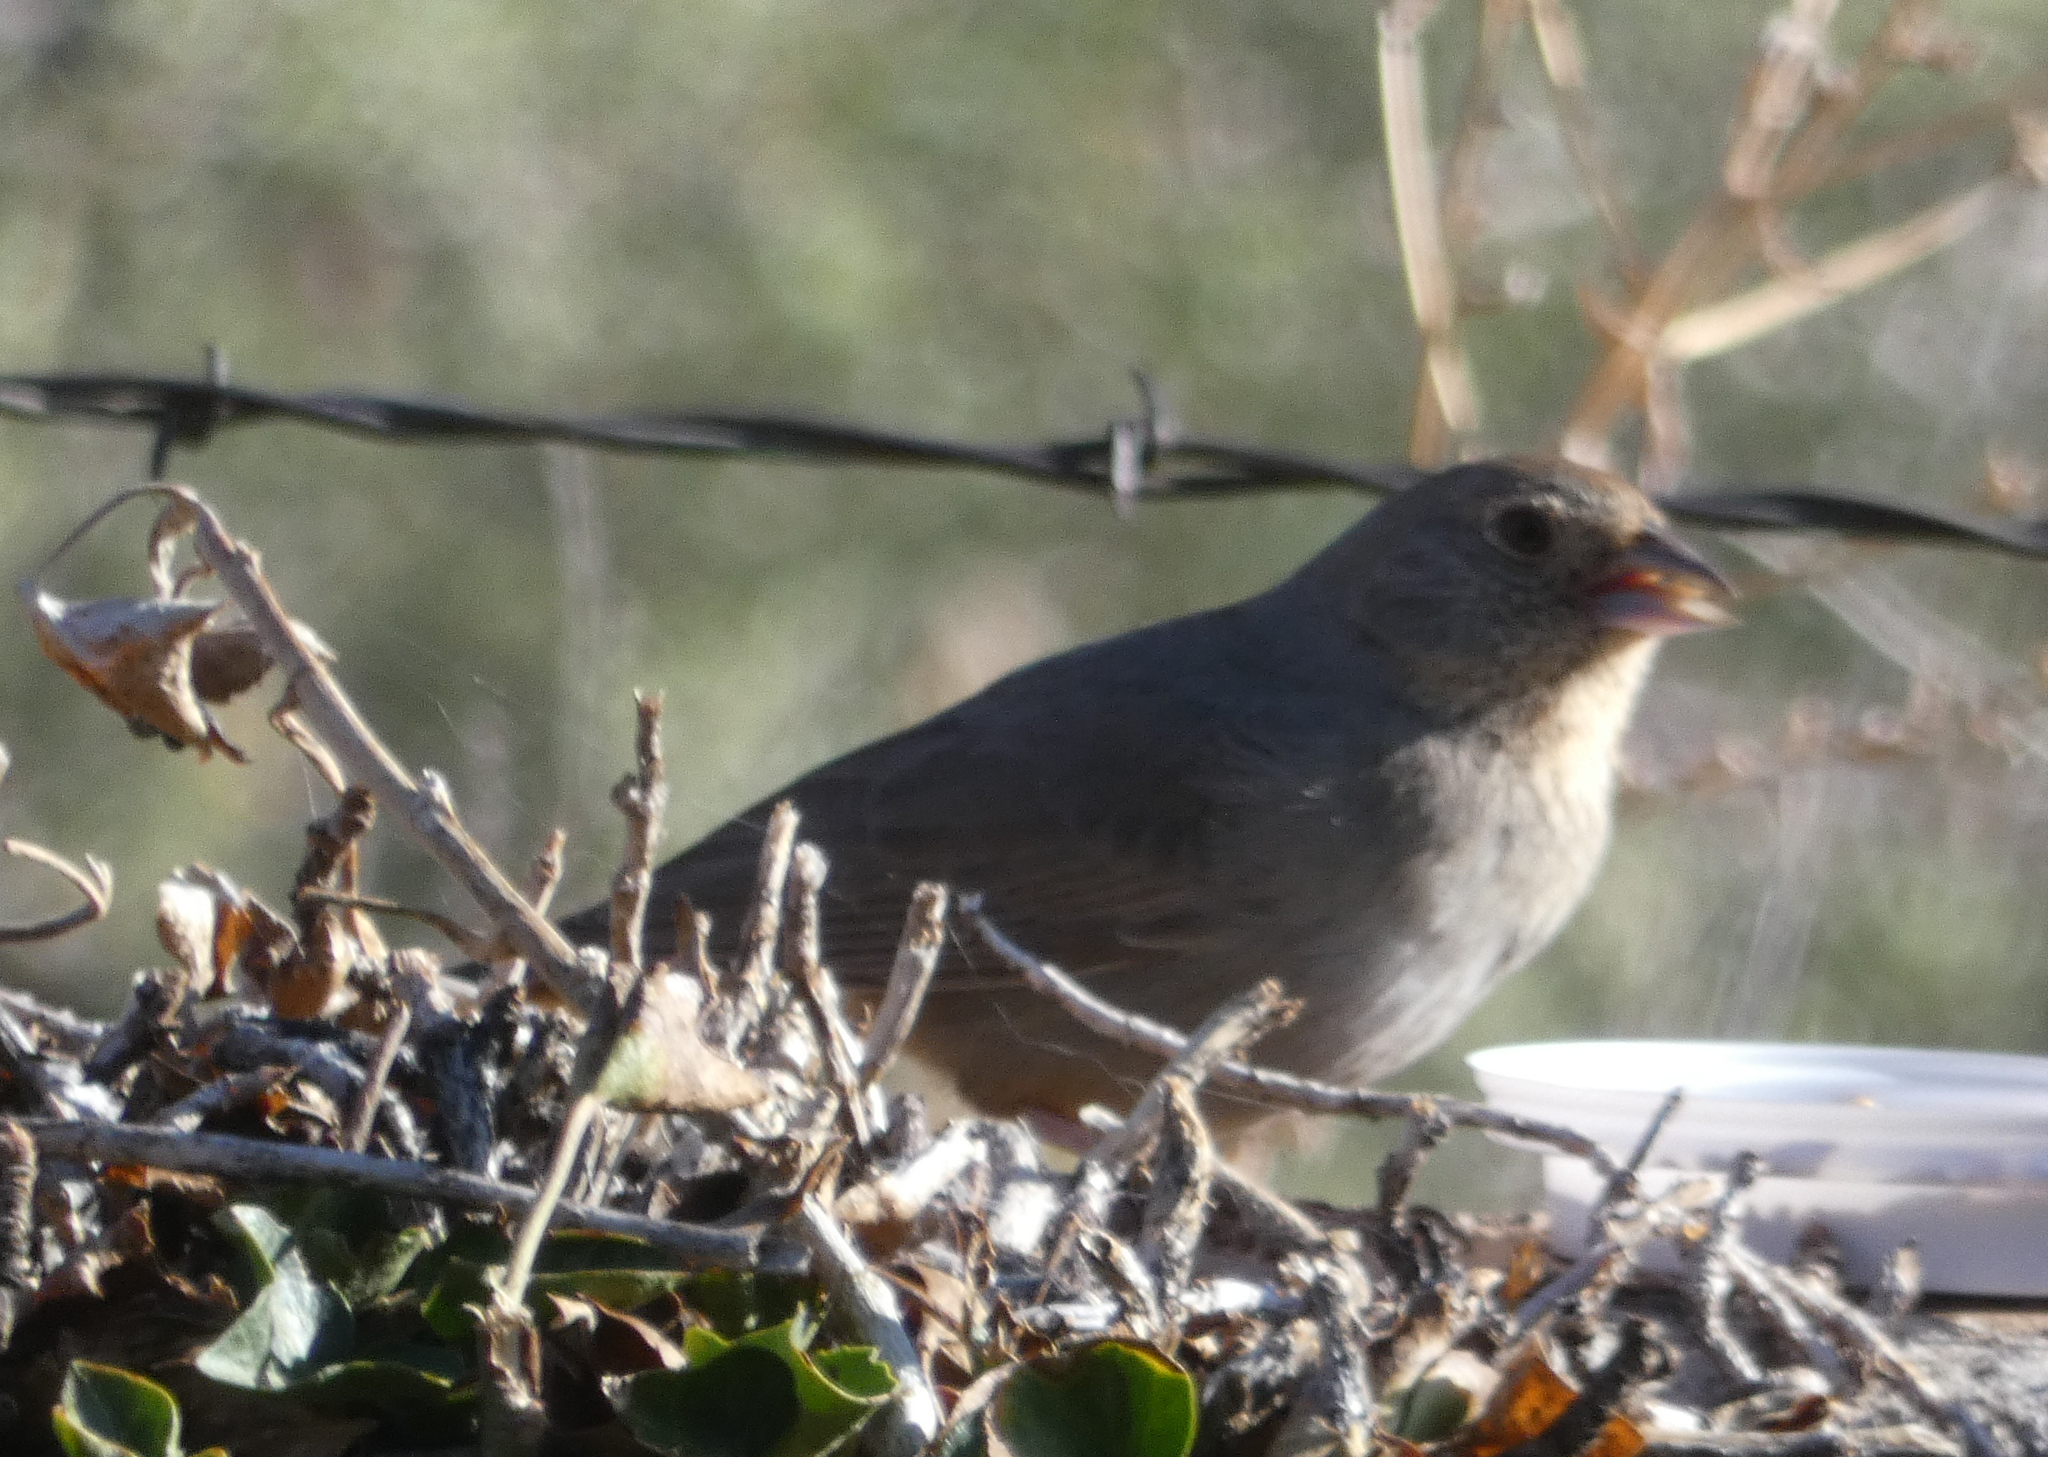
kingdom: Animalia
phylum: Chordata
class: Aves
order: Passeriformes
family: Passerellidae
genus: Melozone
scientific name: Melozone fusca
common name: Canyon towhee
